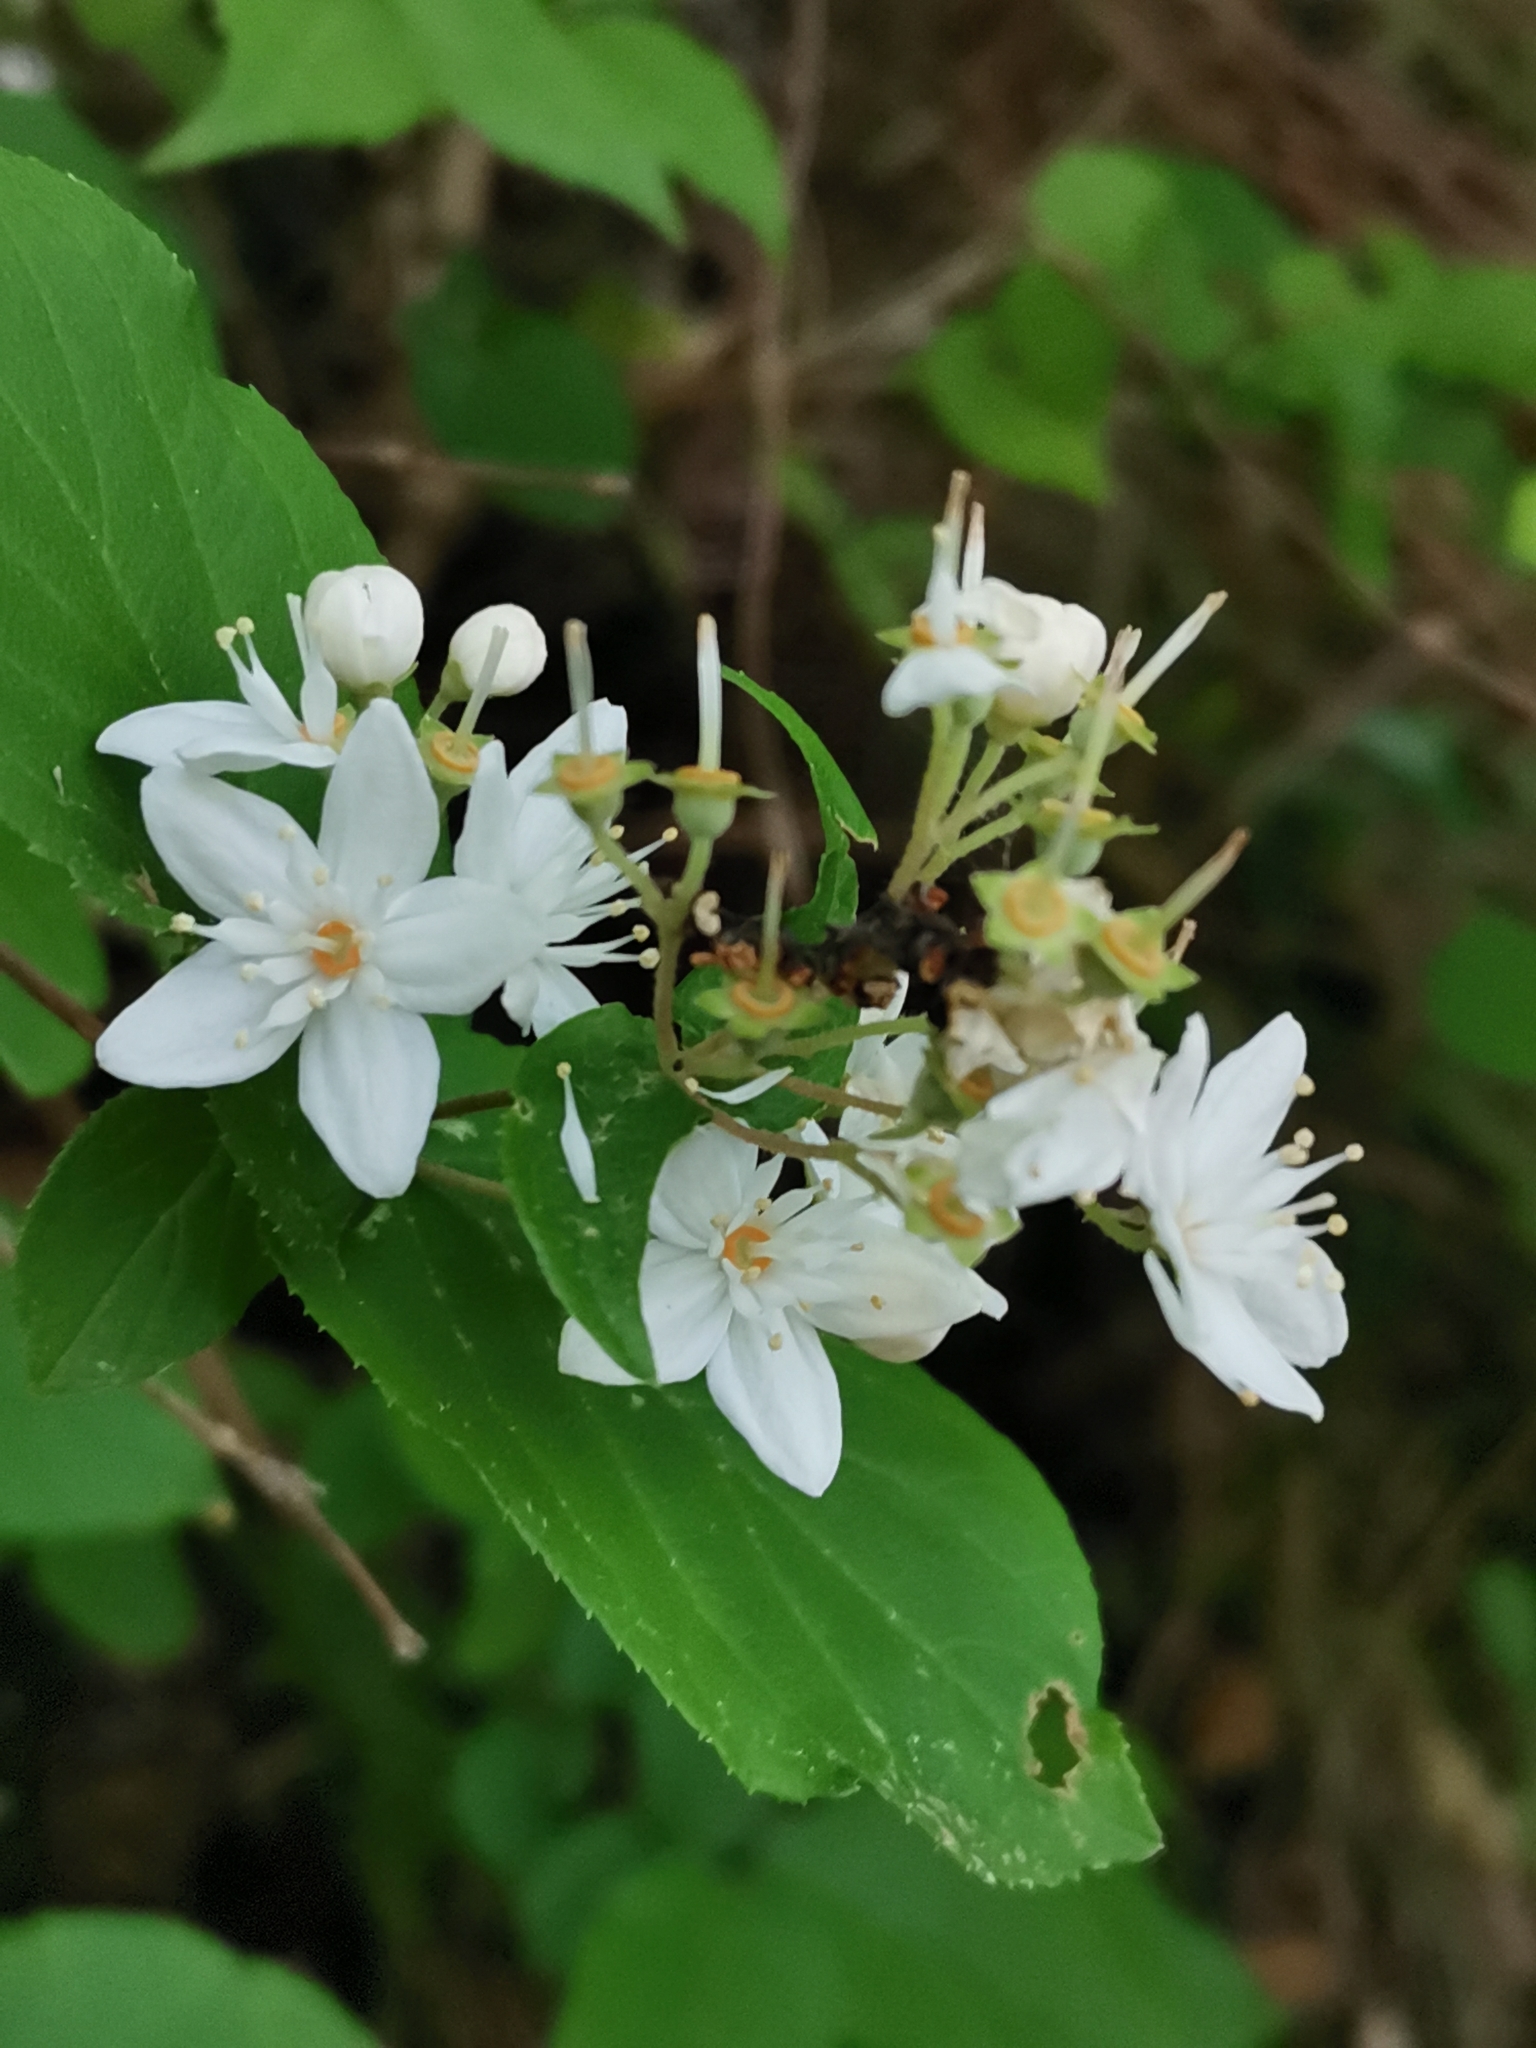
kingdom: Plantae
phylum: Tracheophyta
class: Magnoliopsida
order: Cornales
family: Hydrangeaceae
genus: Deutzia
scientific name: Deutzia scabra
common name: Deutzia
